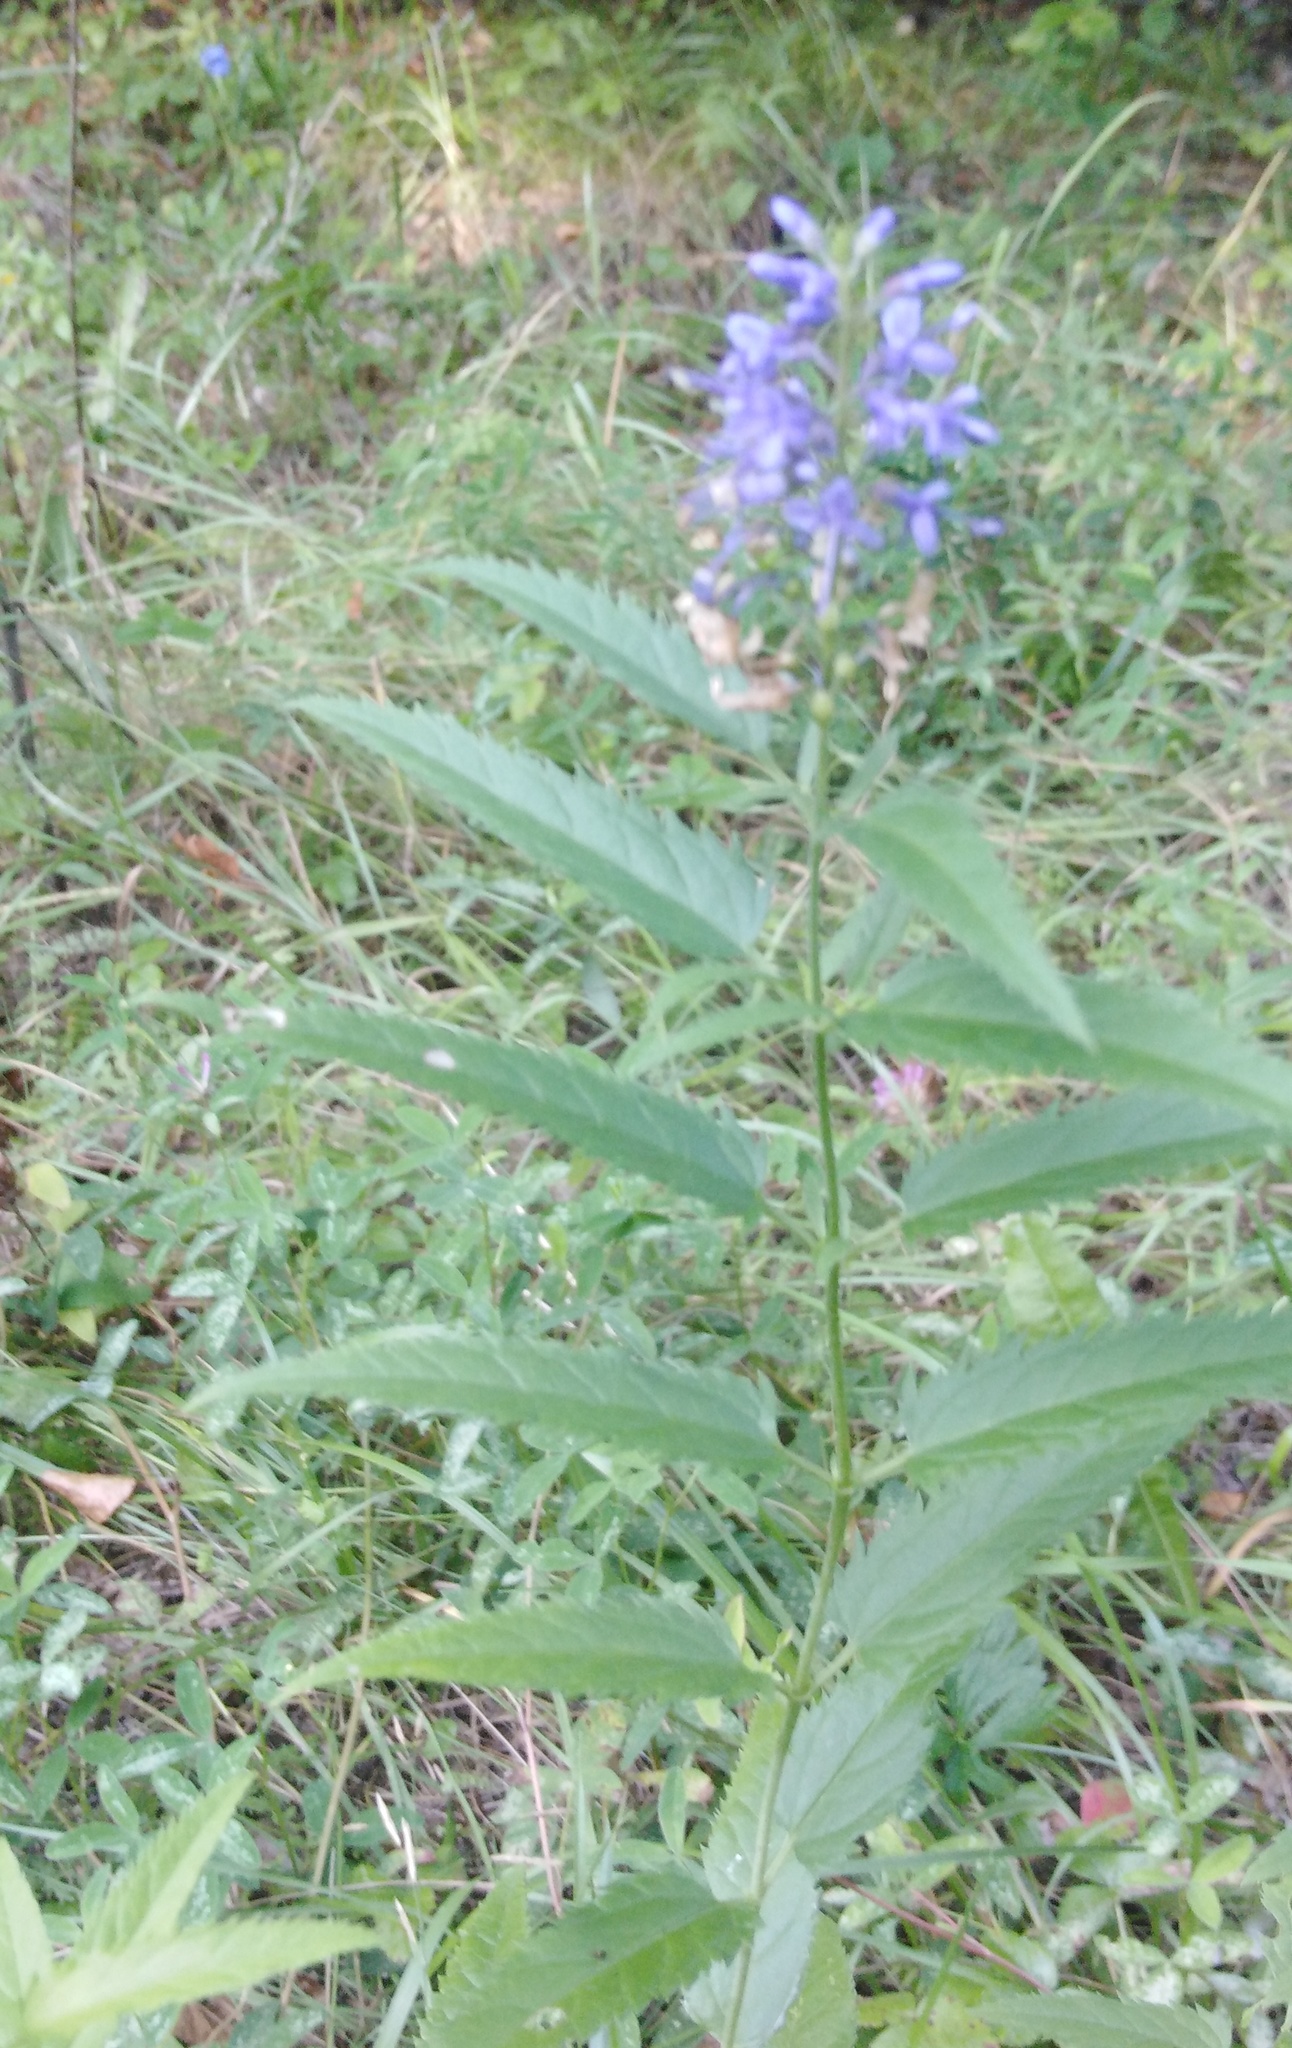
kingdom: Plantae
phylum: Tracheophyta
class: Magnoliopsida
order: Lamiales
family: Plantaginaceae
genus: Veronica
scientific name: Veronica longifolia
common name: Garden speedwell
